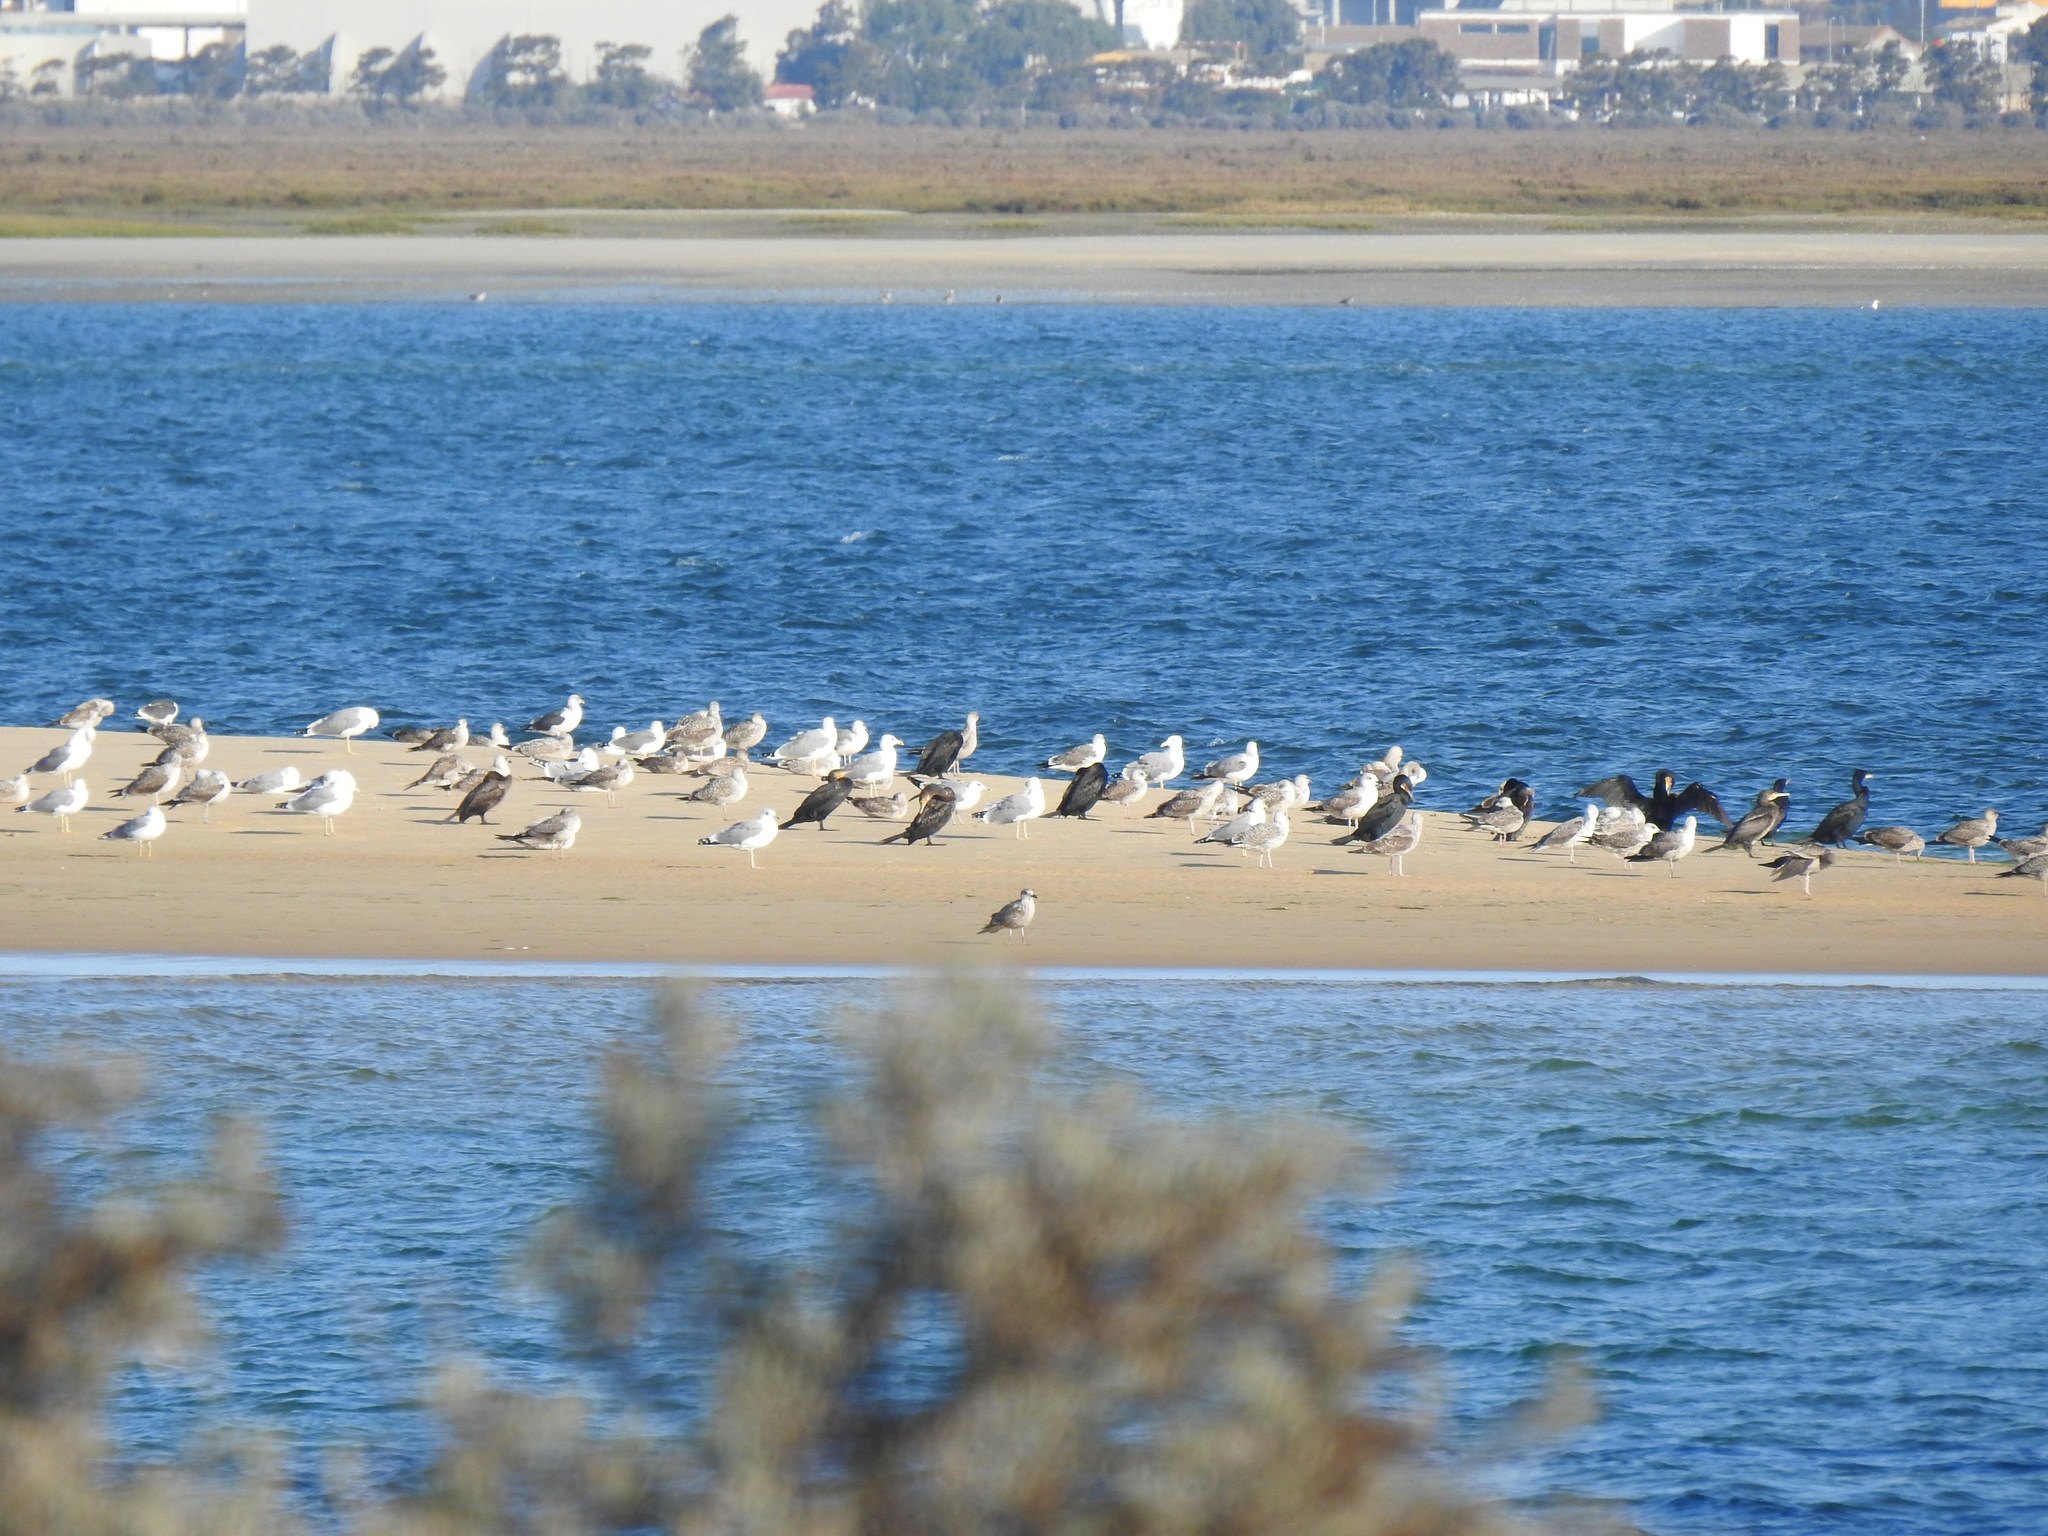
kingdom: Animalia
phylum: Chordata
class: Aves
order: Suliformes
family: Phalacrocoracidae
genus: Phalacrocorax
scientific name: Phalacrocorax carbo
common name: Great cormorant
